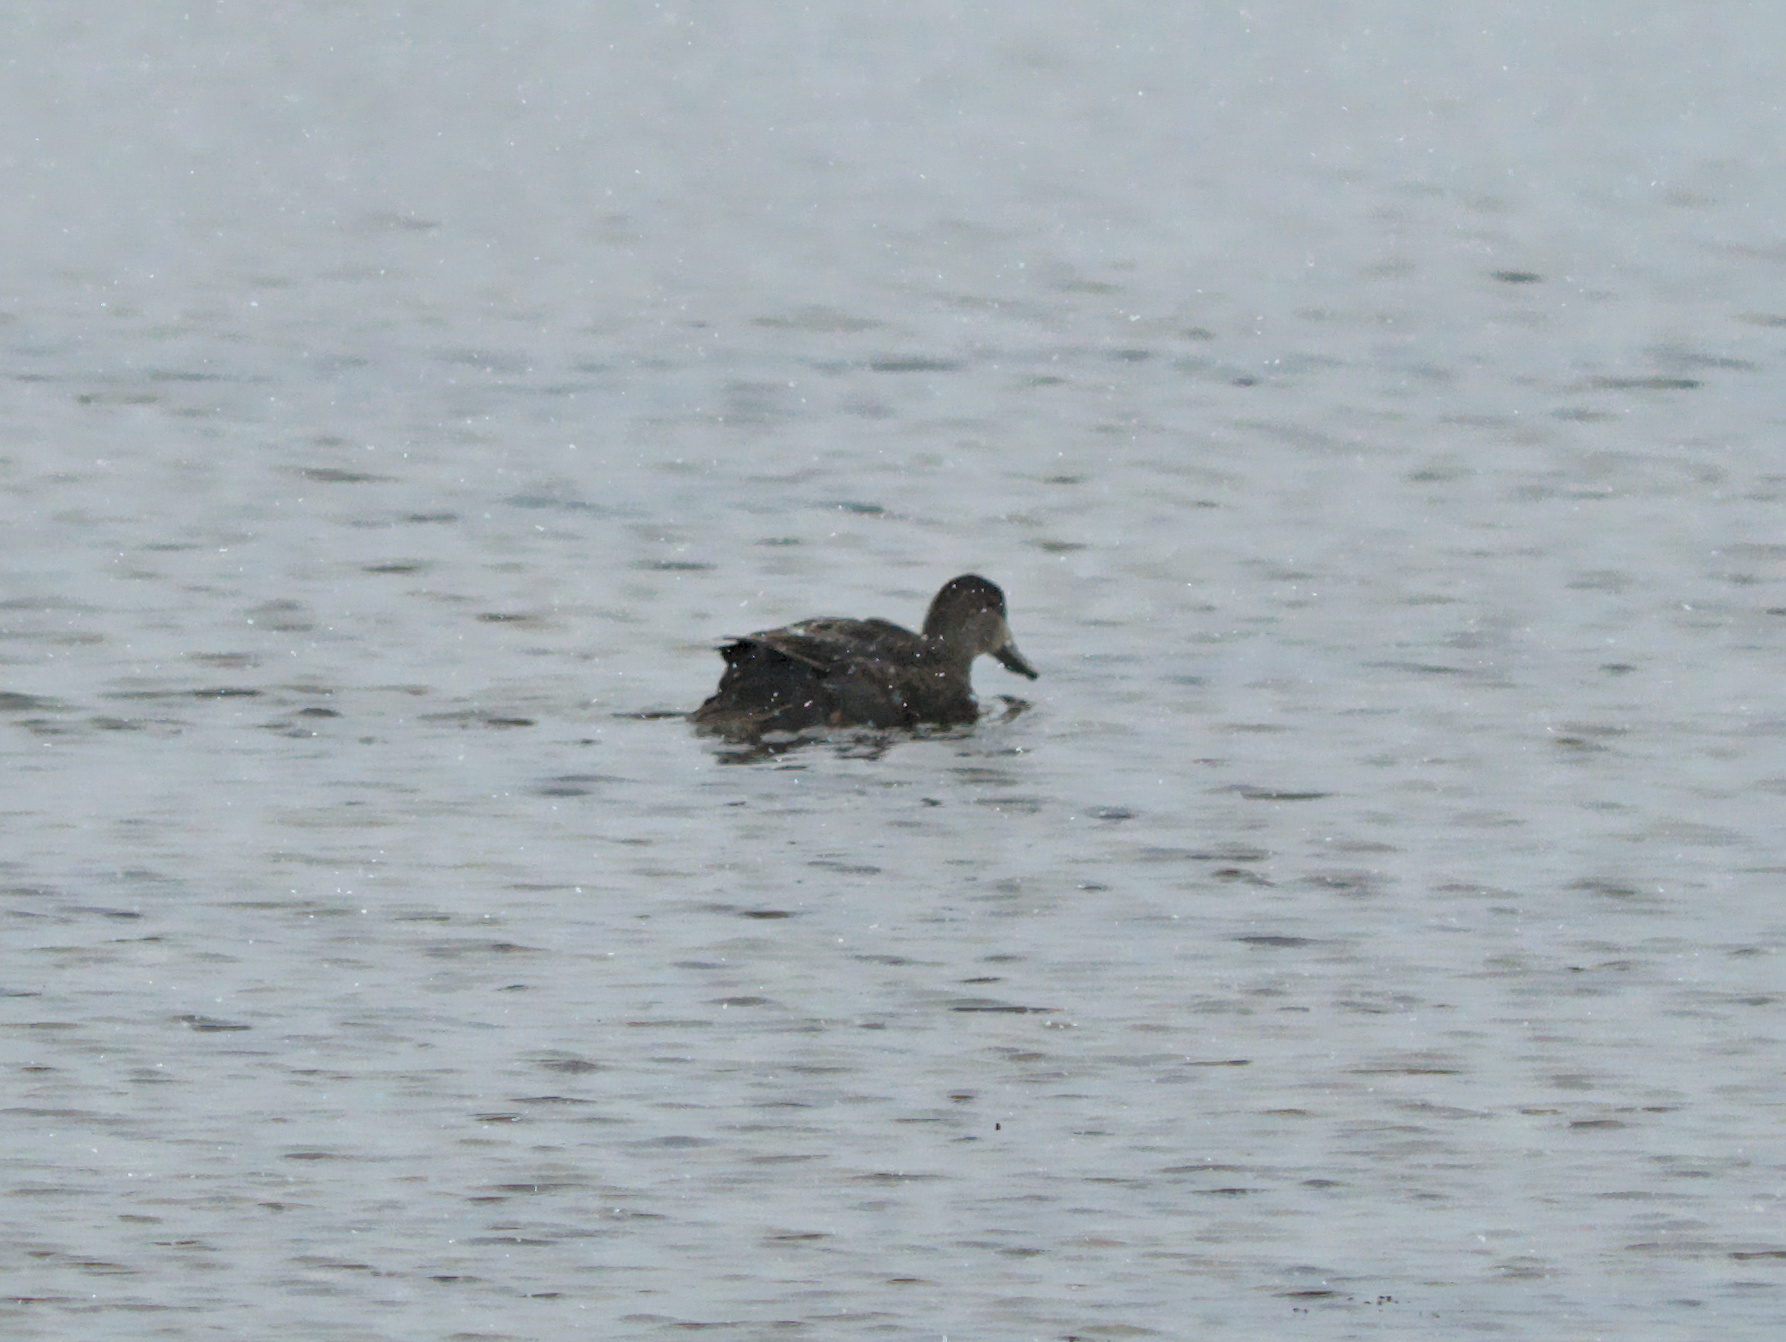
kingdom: Animalia
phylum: Chordata
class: Aves
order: Anseriformes
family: Anatidae
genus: Anas
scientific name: Anas rubripes
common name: American black duck
